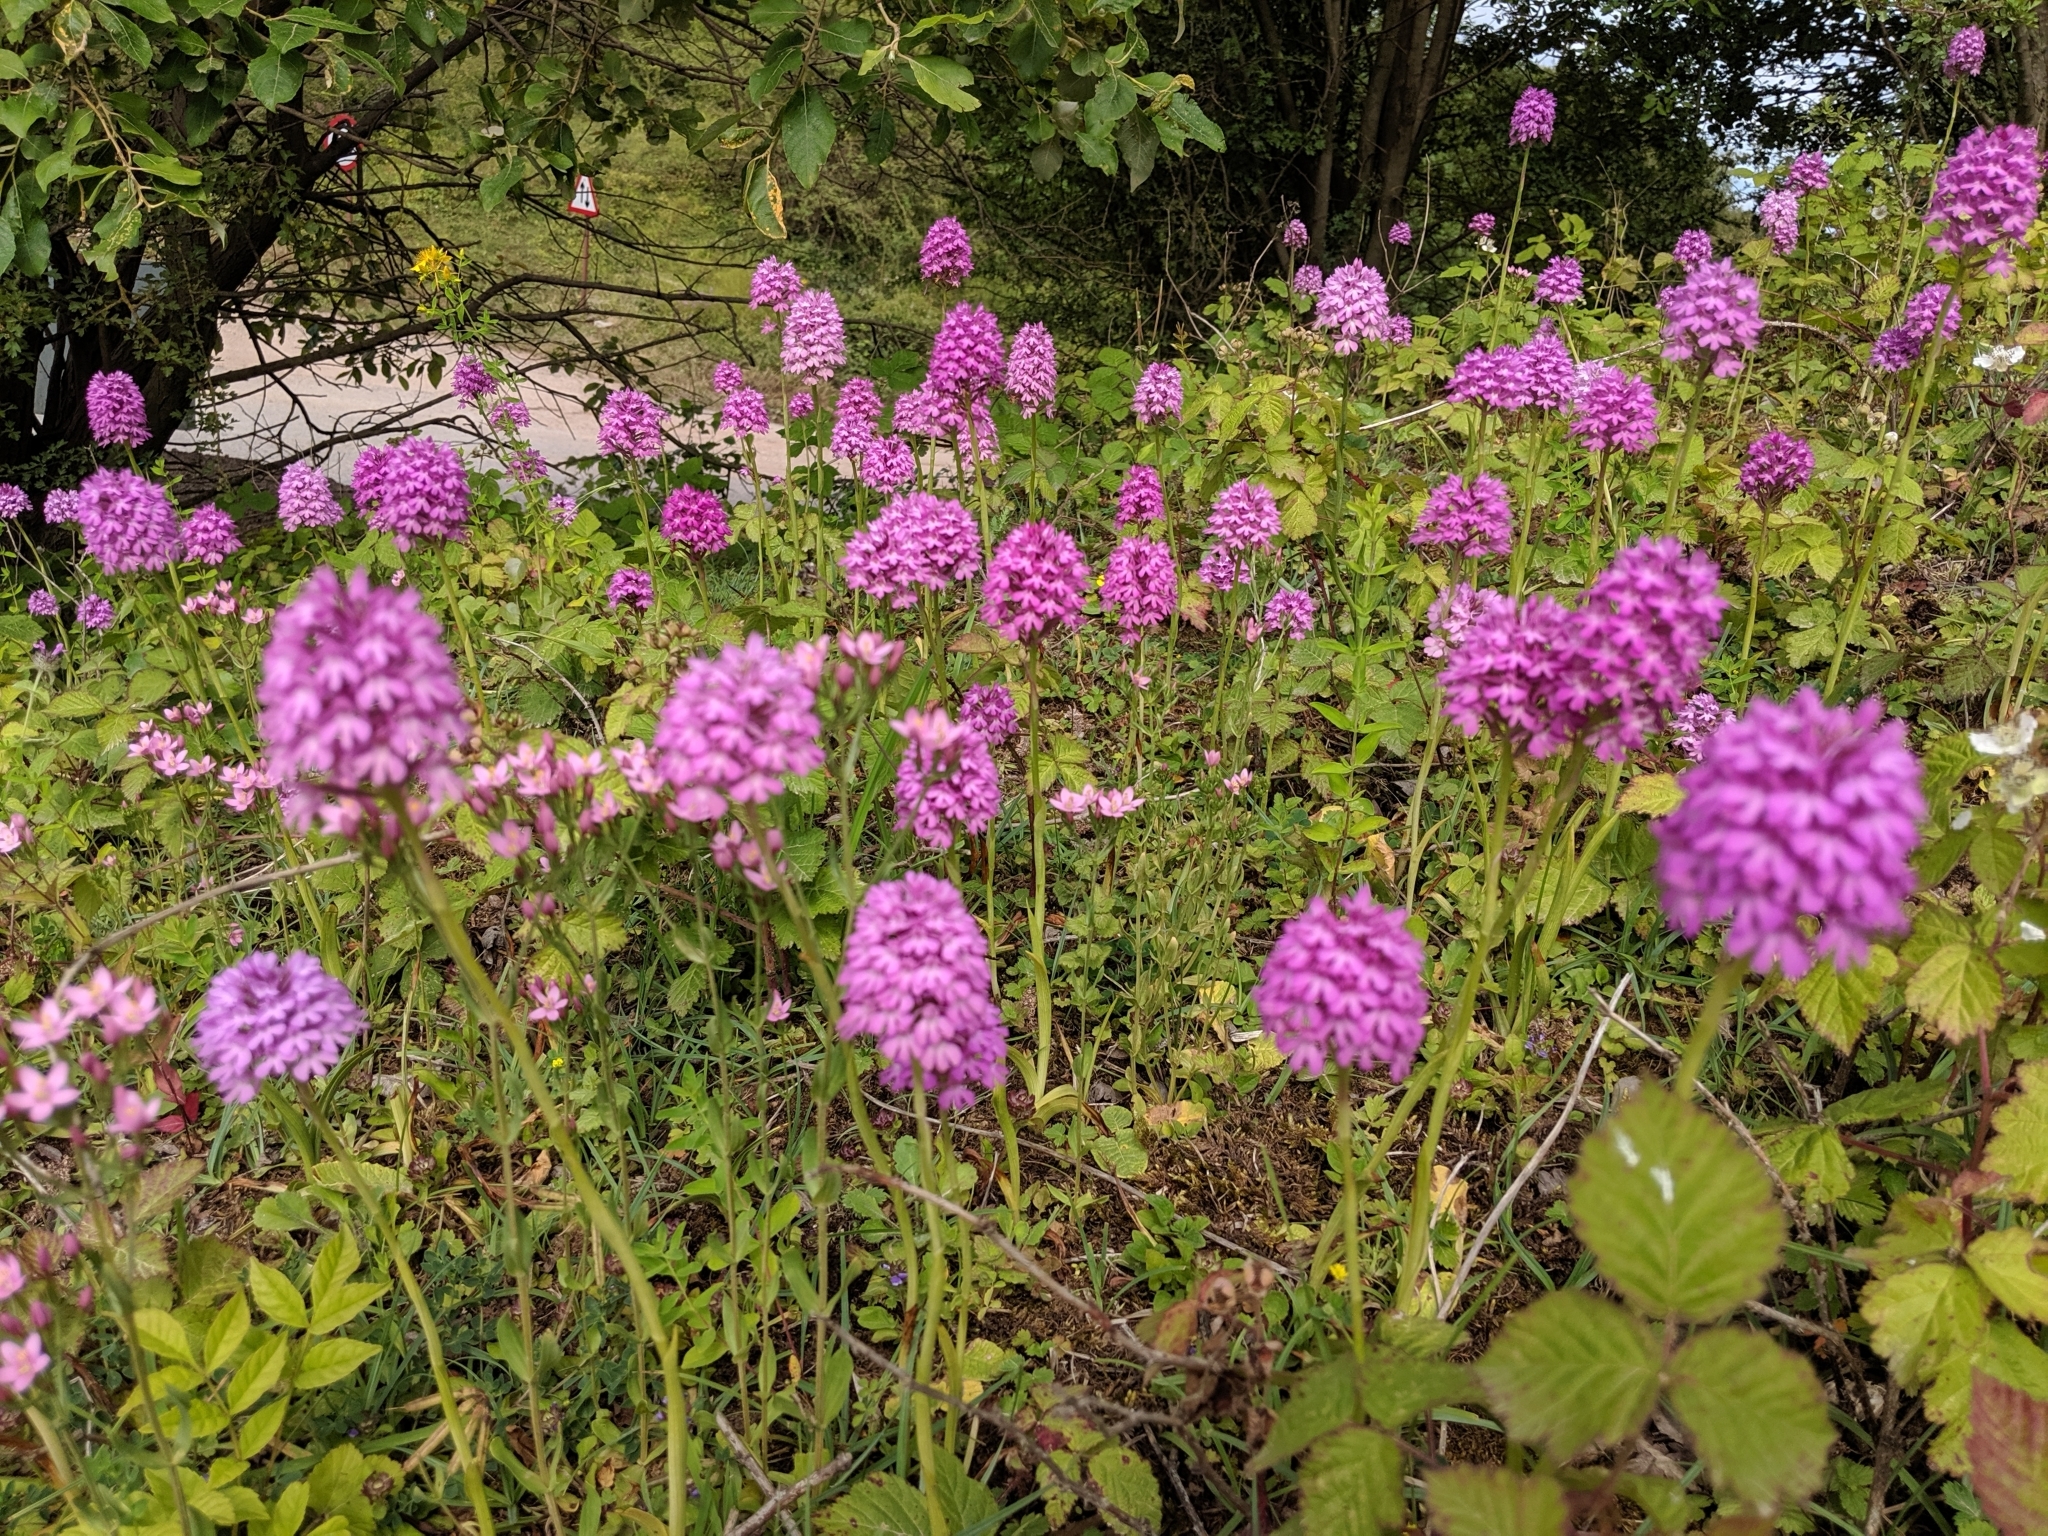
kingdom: Plantae
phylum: Tracheophyta
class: Liliopsida
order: Asparagales
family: Orchidaceae
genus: Anacamptis
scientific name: Anacamptis pyramidalis
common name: Pyramidal orchid
